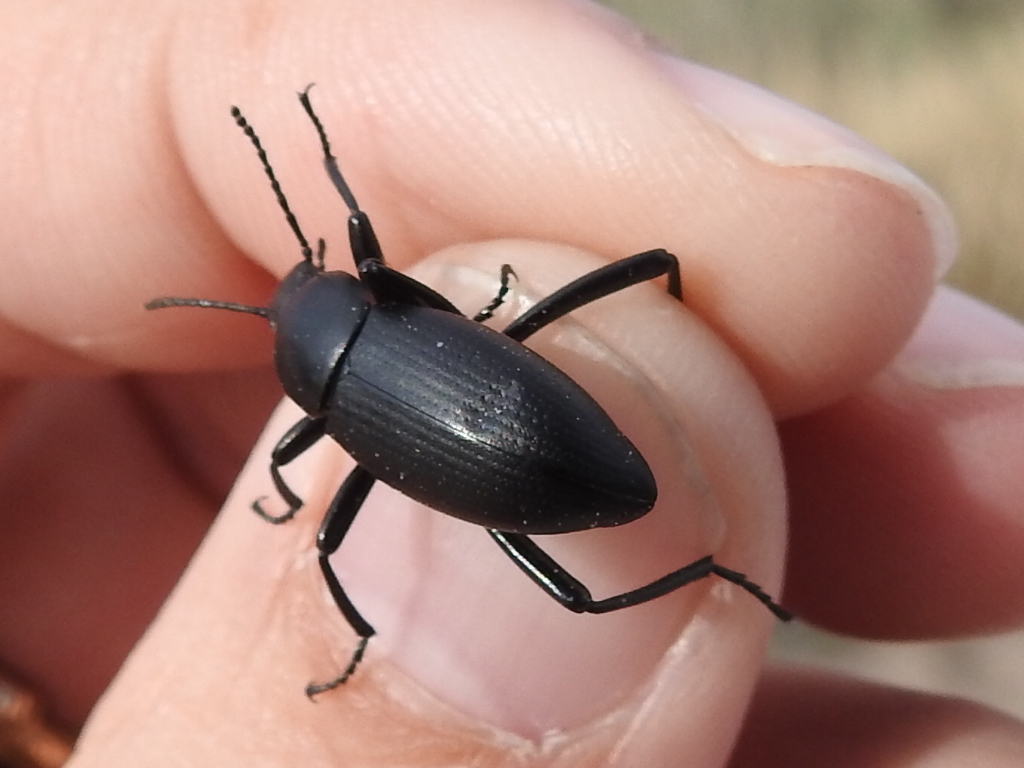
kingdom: Animalia
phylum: Arthropoda
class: Insecta
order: Coleoptera
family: Tenebrionidae
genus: Eleodes
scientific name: Eleodes carbonaria
